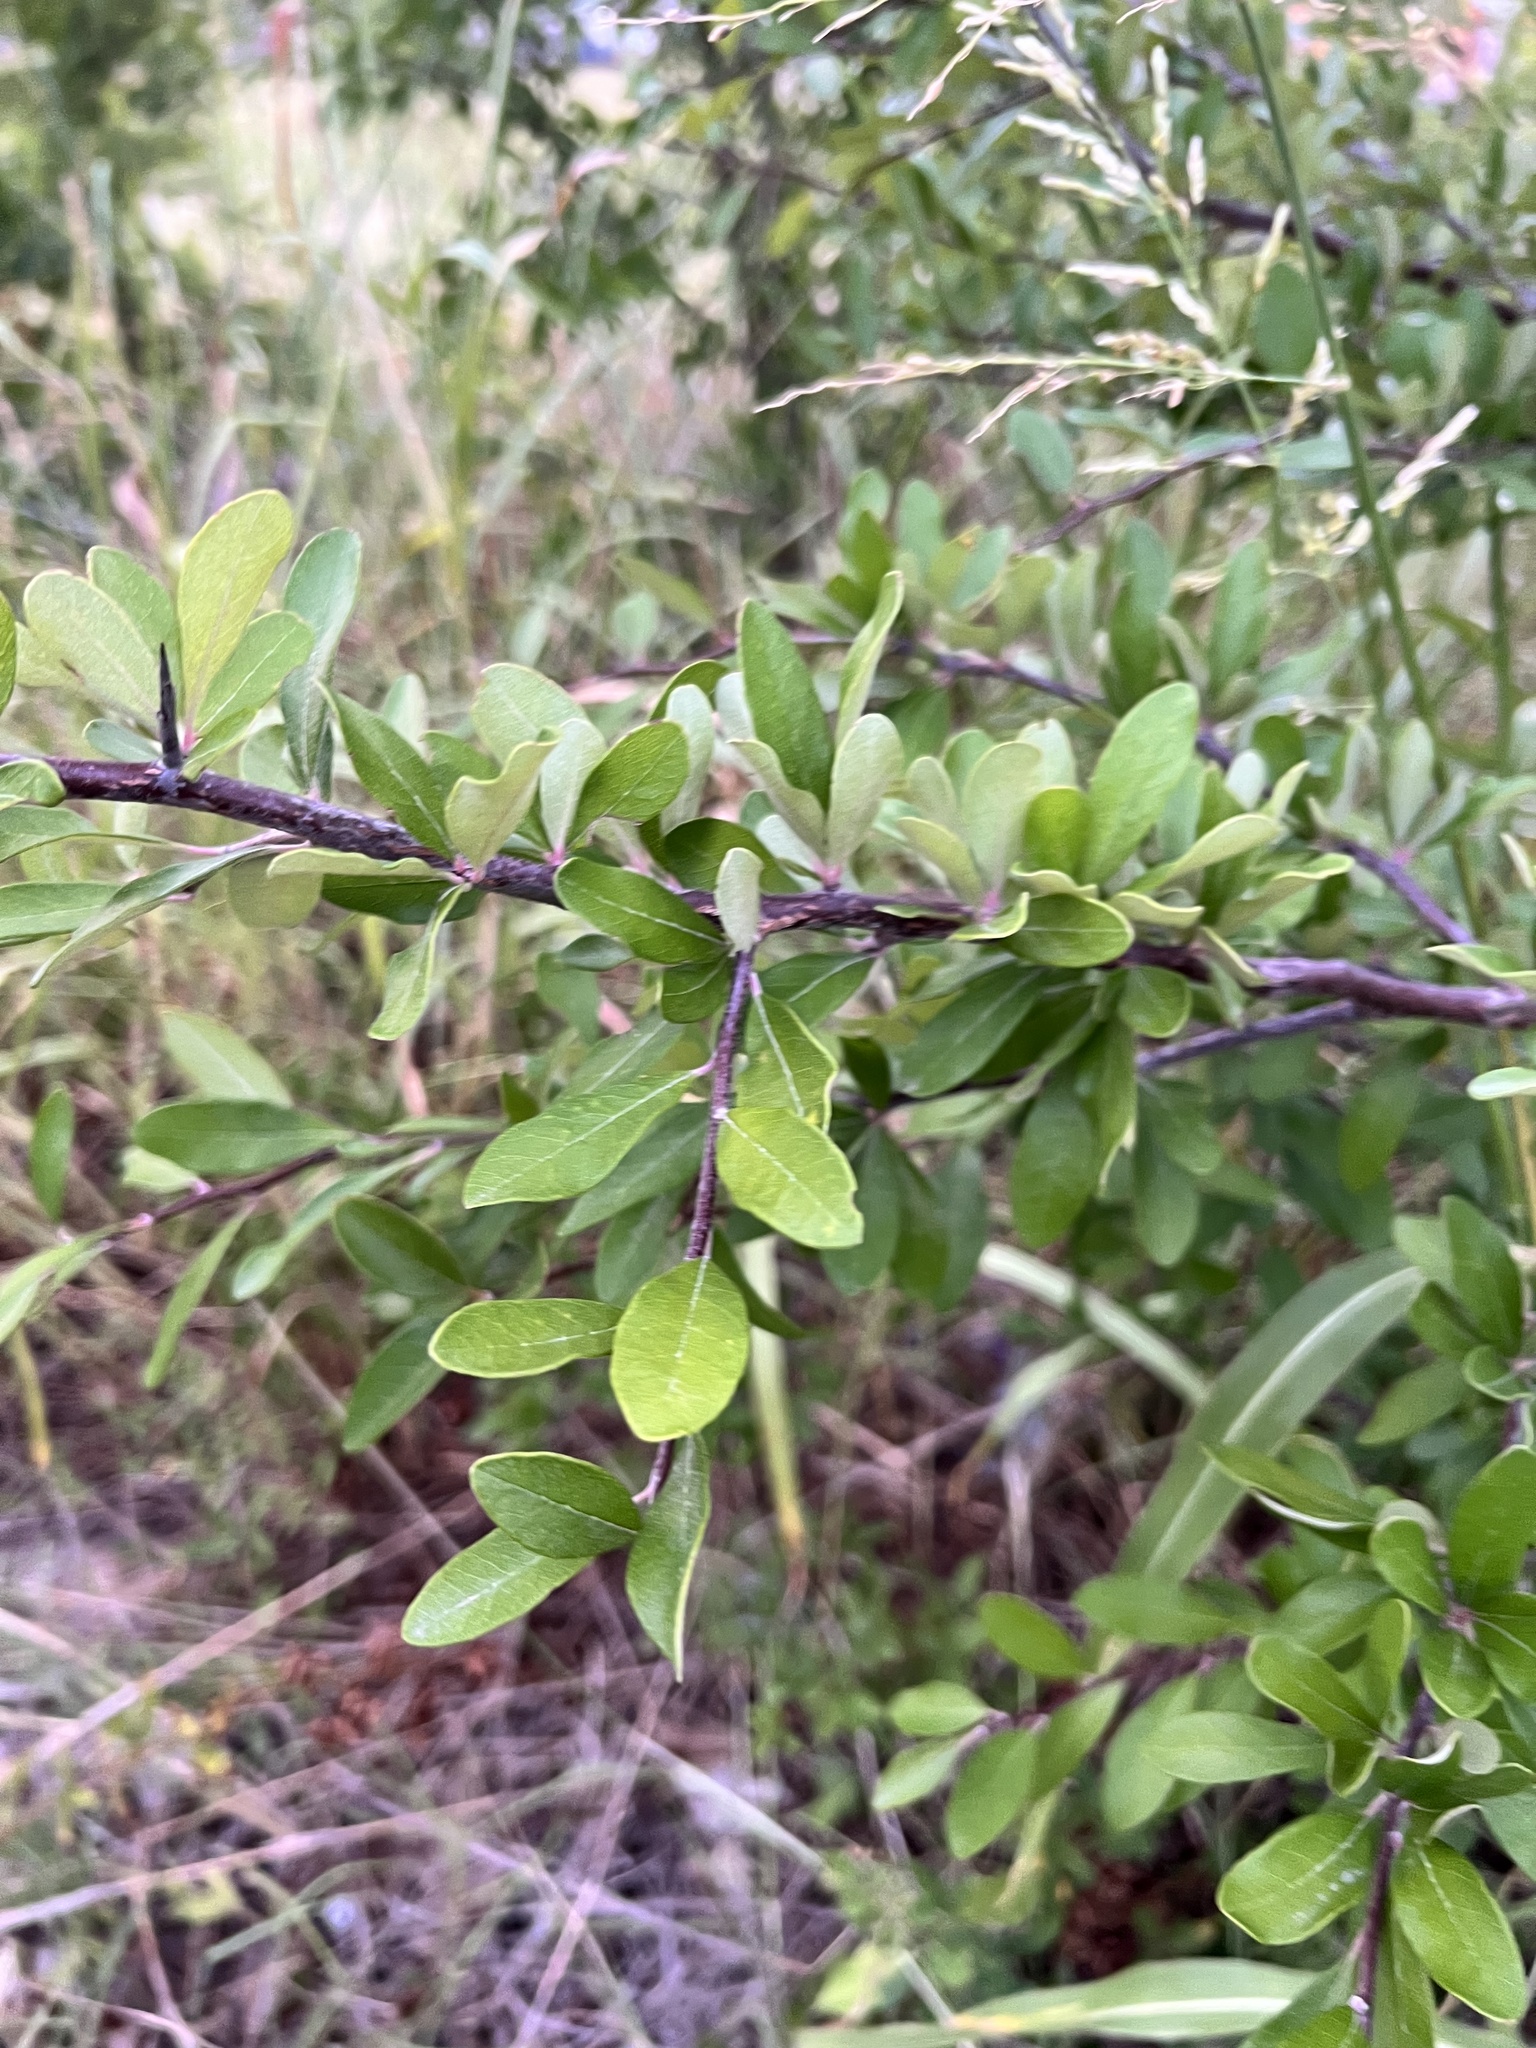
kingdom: Plantae
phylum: Tracheophyta
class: Magnoliopsida
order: Ericales
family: Sapotaceae
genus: Sideroxylon
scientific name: Sideroxylon lanuginosum
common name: Chittamwood
